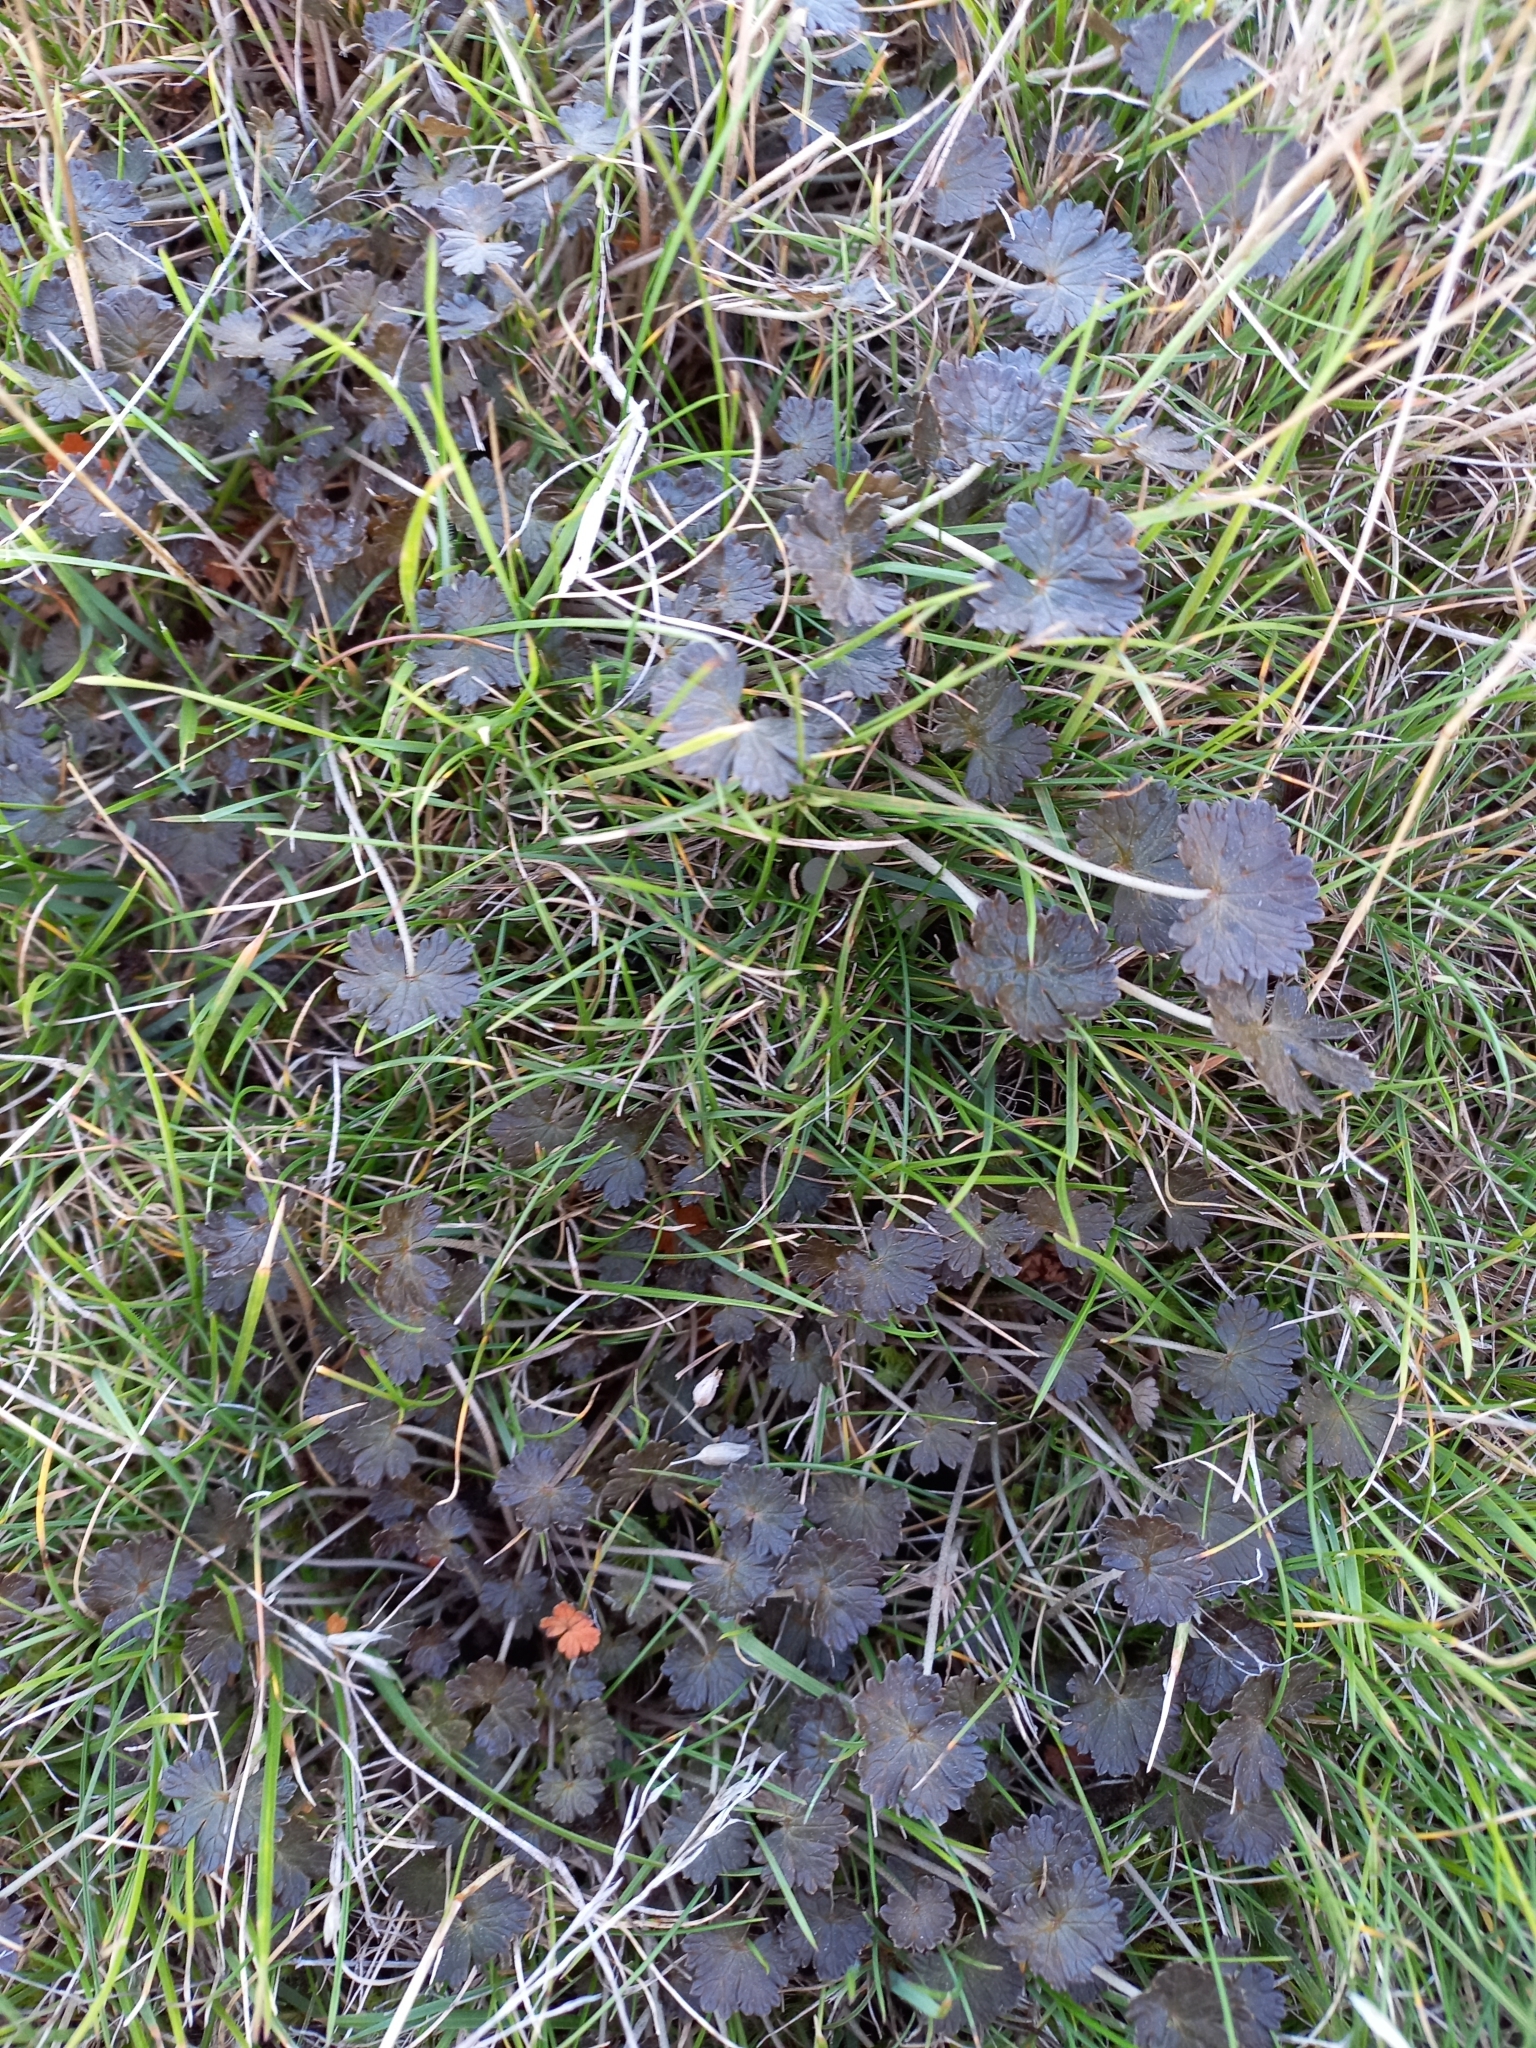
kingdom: Plantae
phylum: Tracheophyta
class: Magnoliopsida
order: Geraniales
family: Geraniaceae
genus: Geranium
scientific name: Geranium brevicaule
